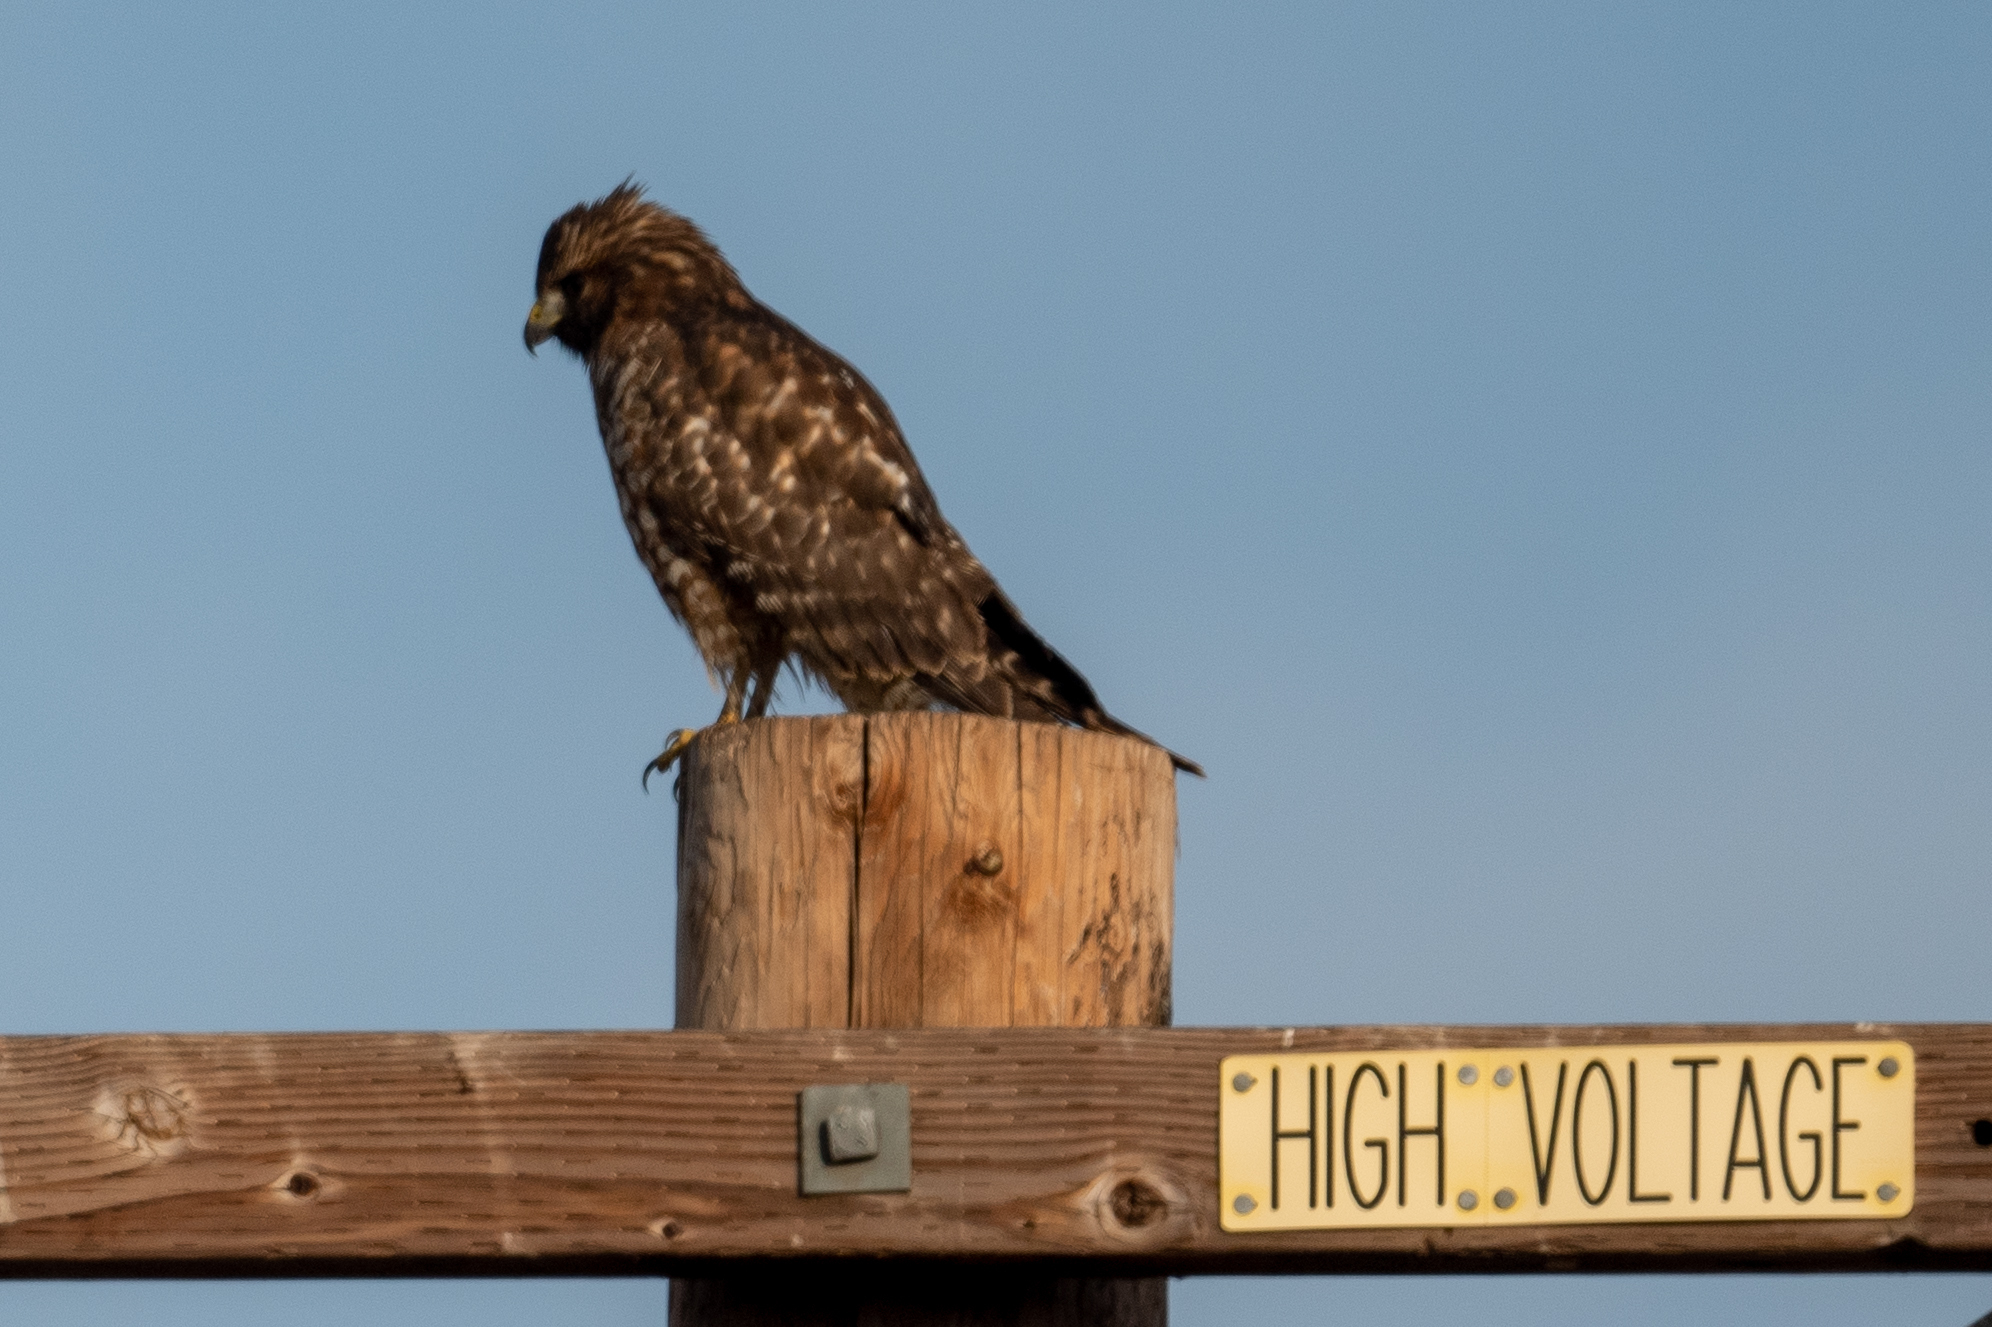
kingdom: Animalia
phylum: Chordata
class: Aves
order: Accipitriformes
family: Accipitridae
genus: Buteo
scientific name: Buteo lineatus
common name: Red-shouldered hawk
